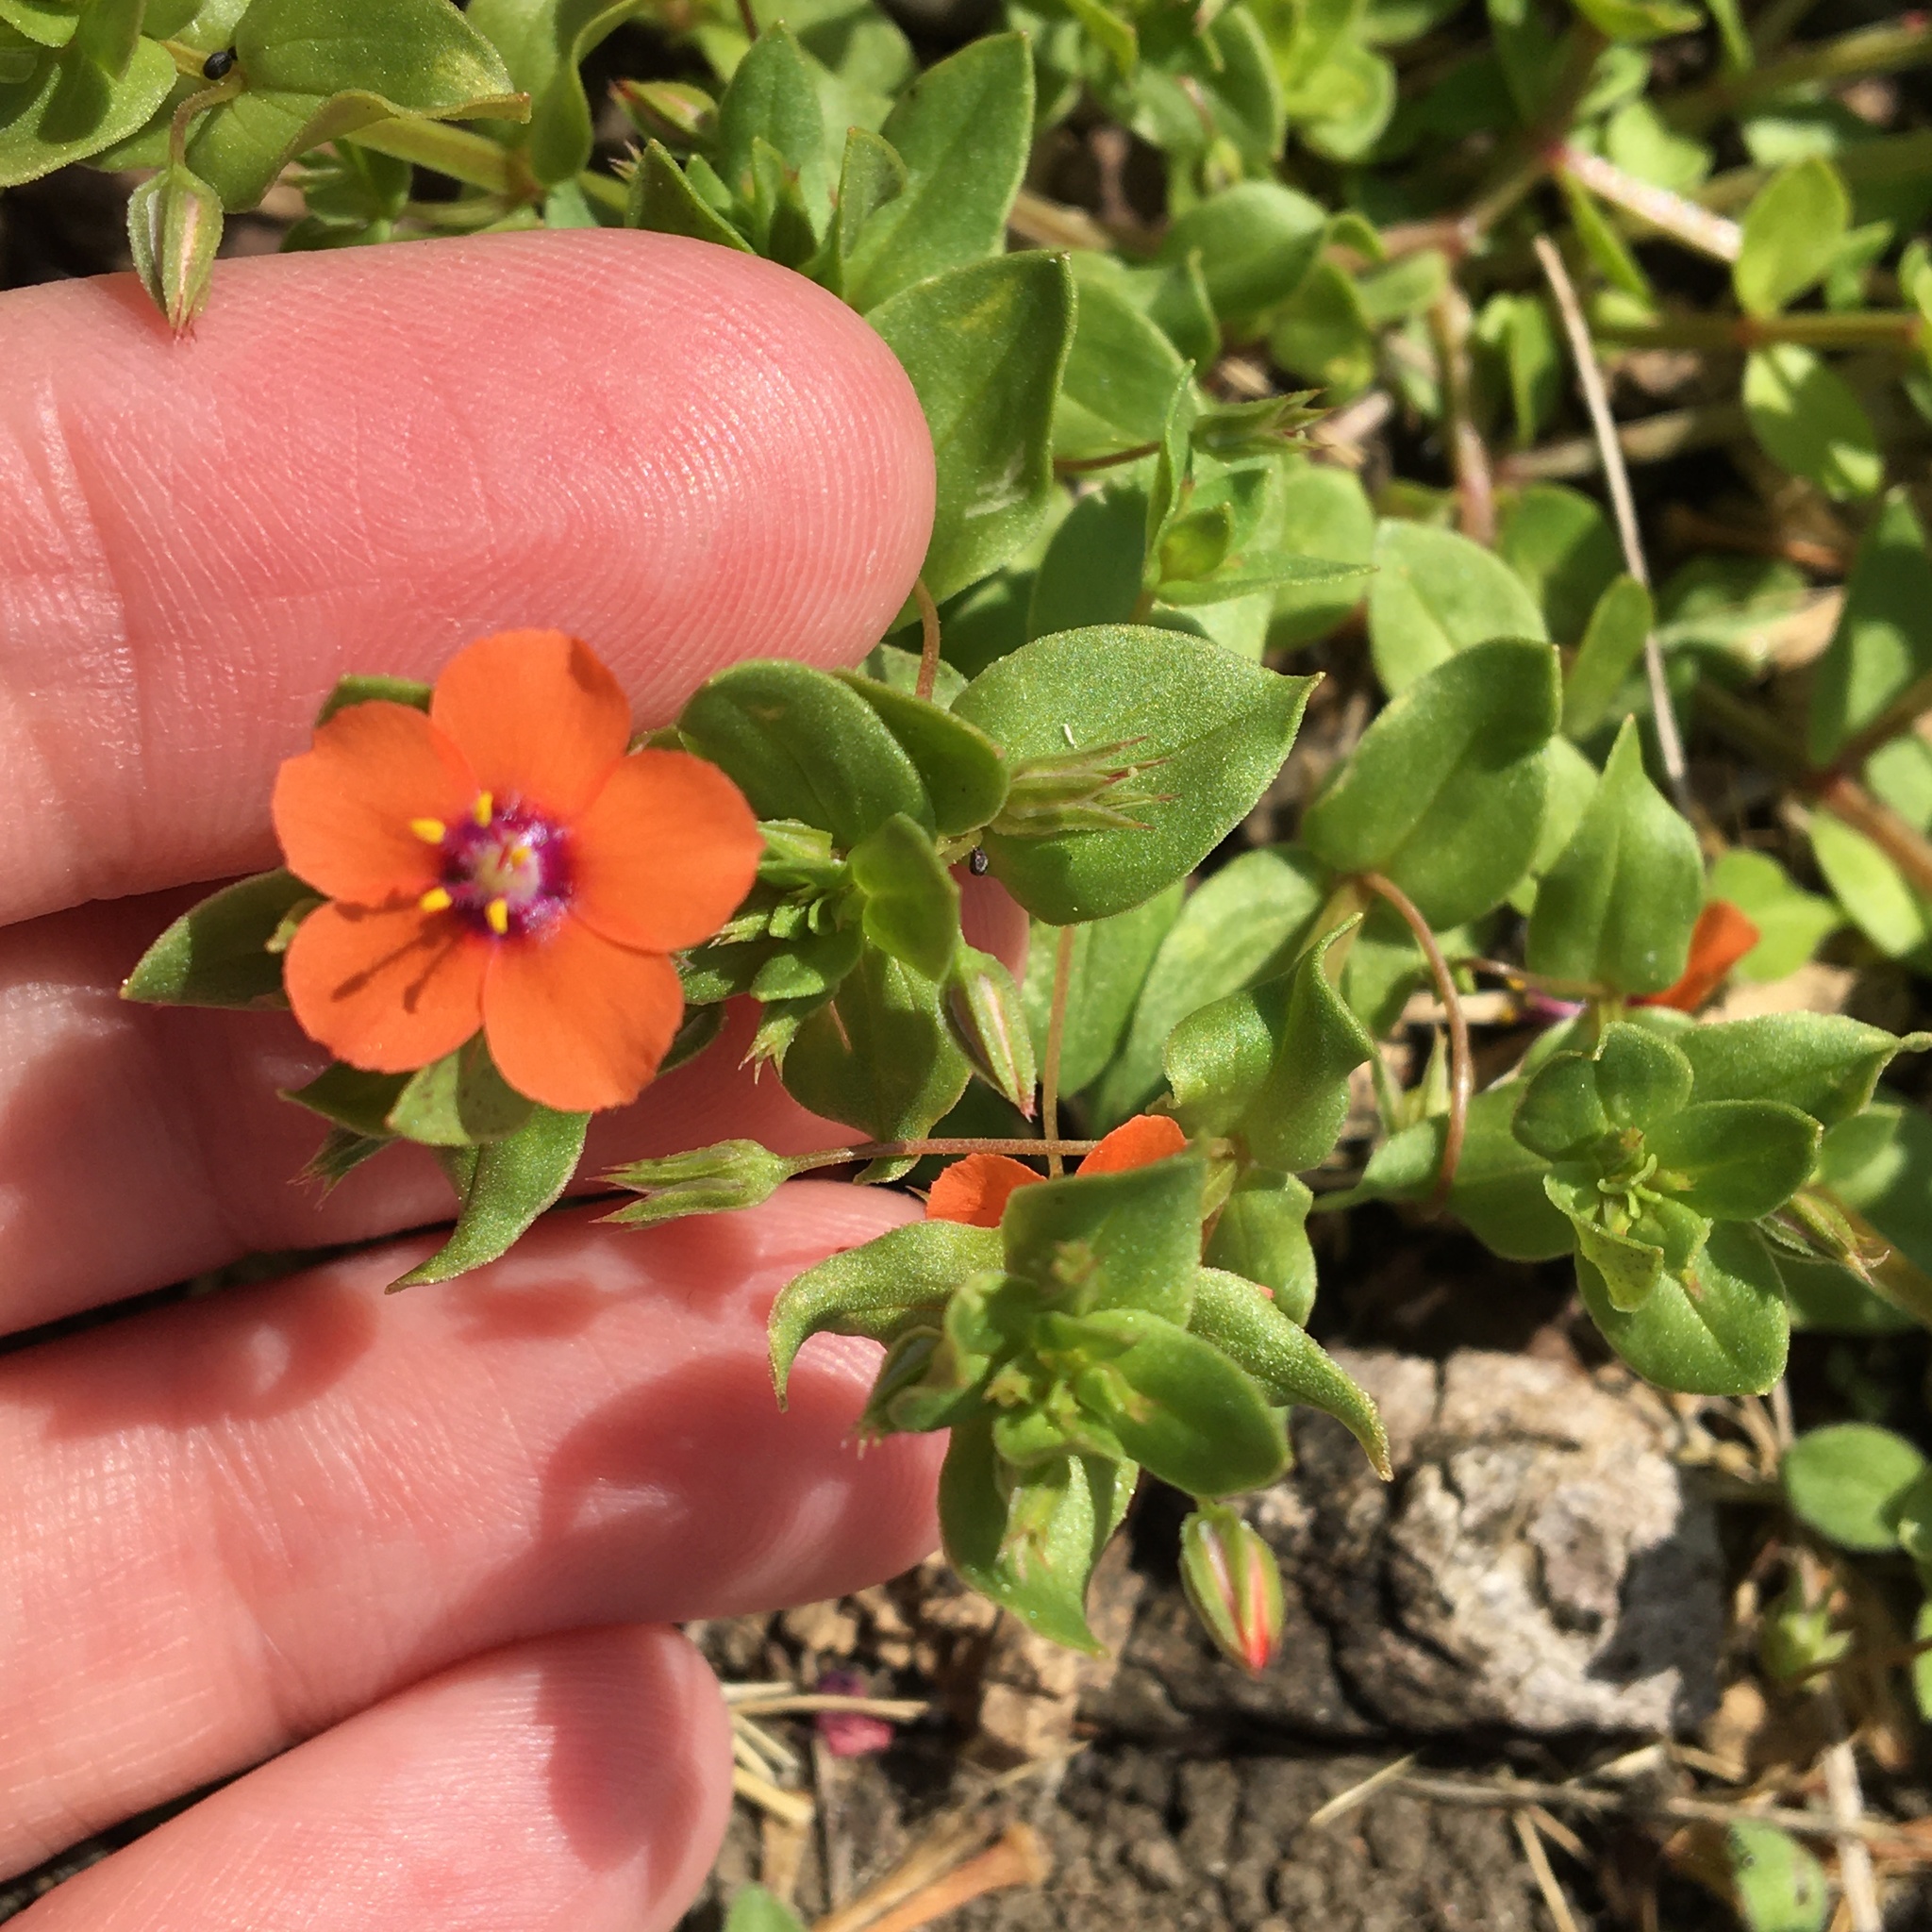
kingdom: Plantae
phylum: Tracheophyta
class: Magnoliopsida
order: Ericales
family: Primulaceae
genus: Lysimachia
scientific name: Lysimachia arvensis
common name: Scarlet pimpernel
